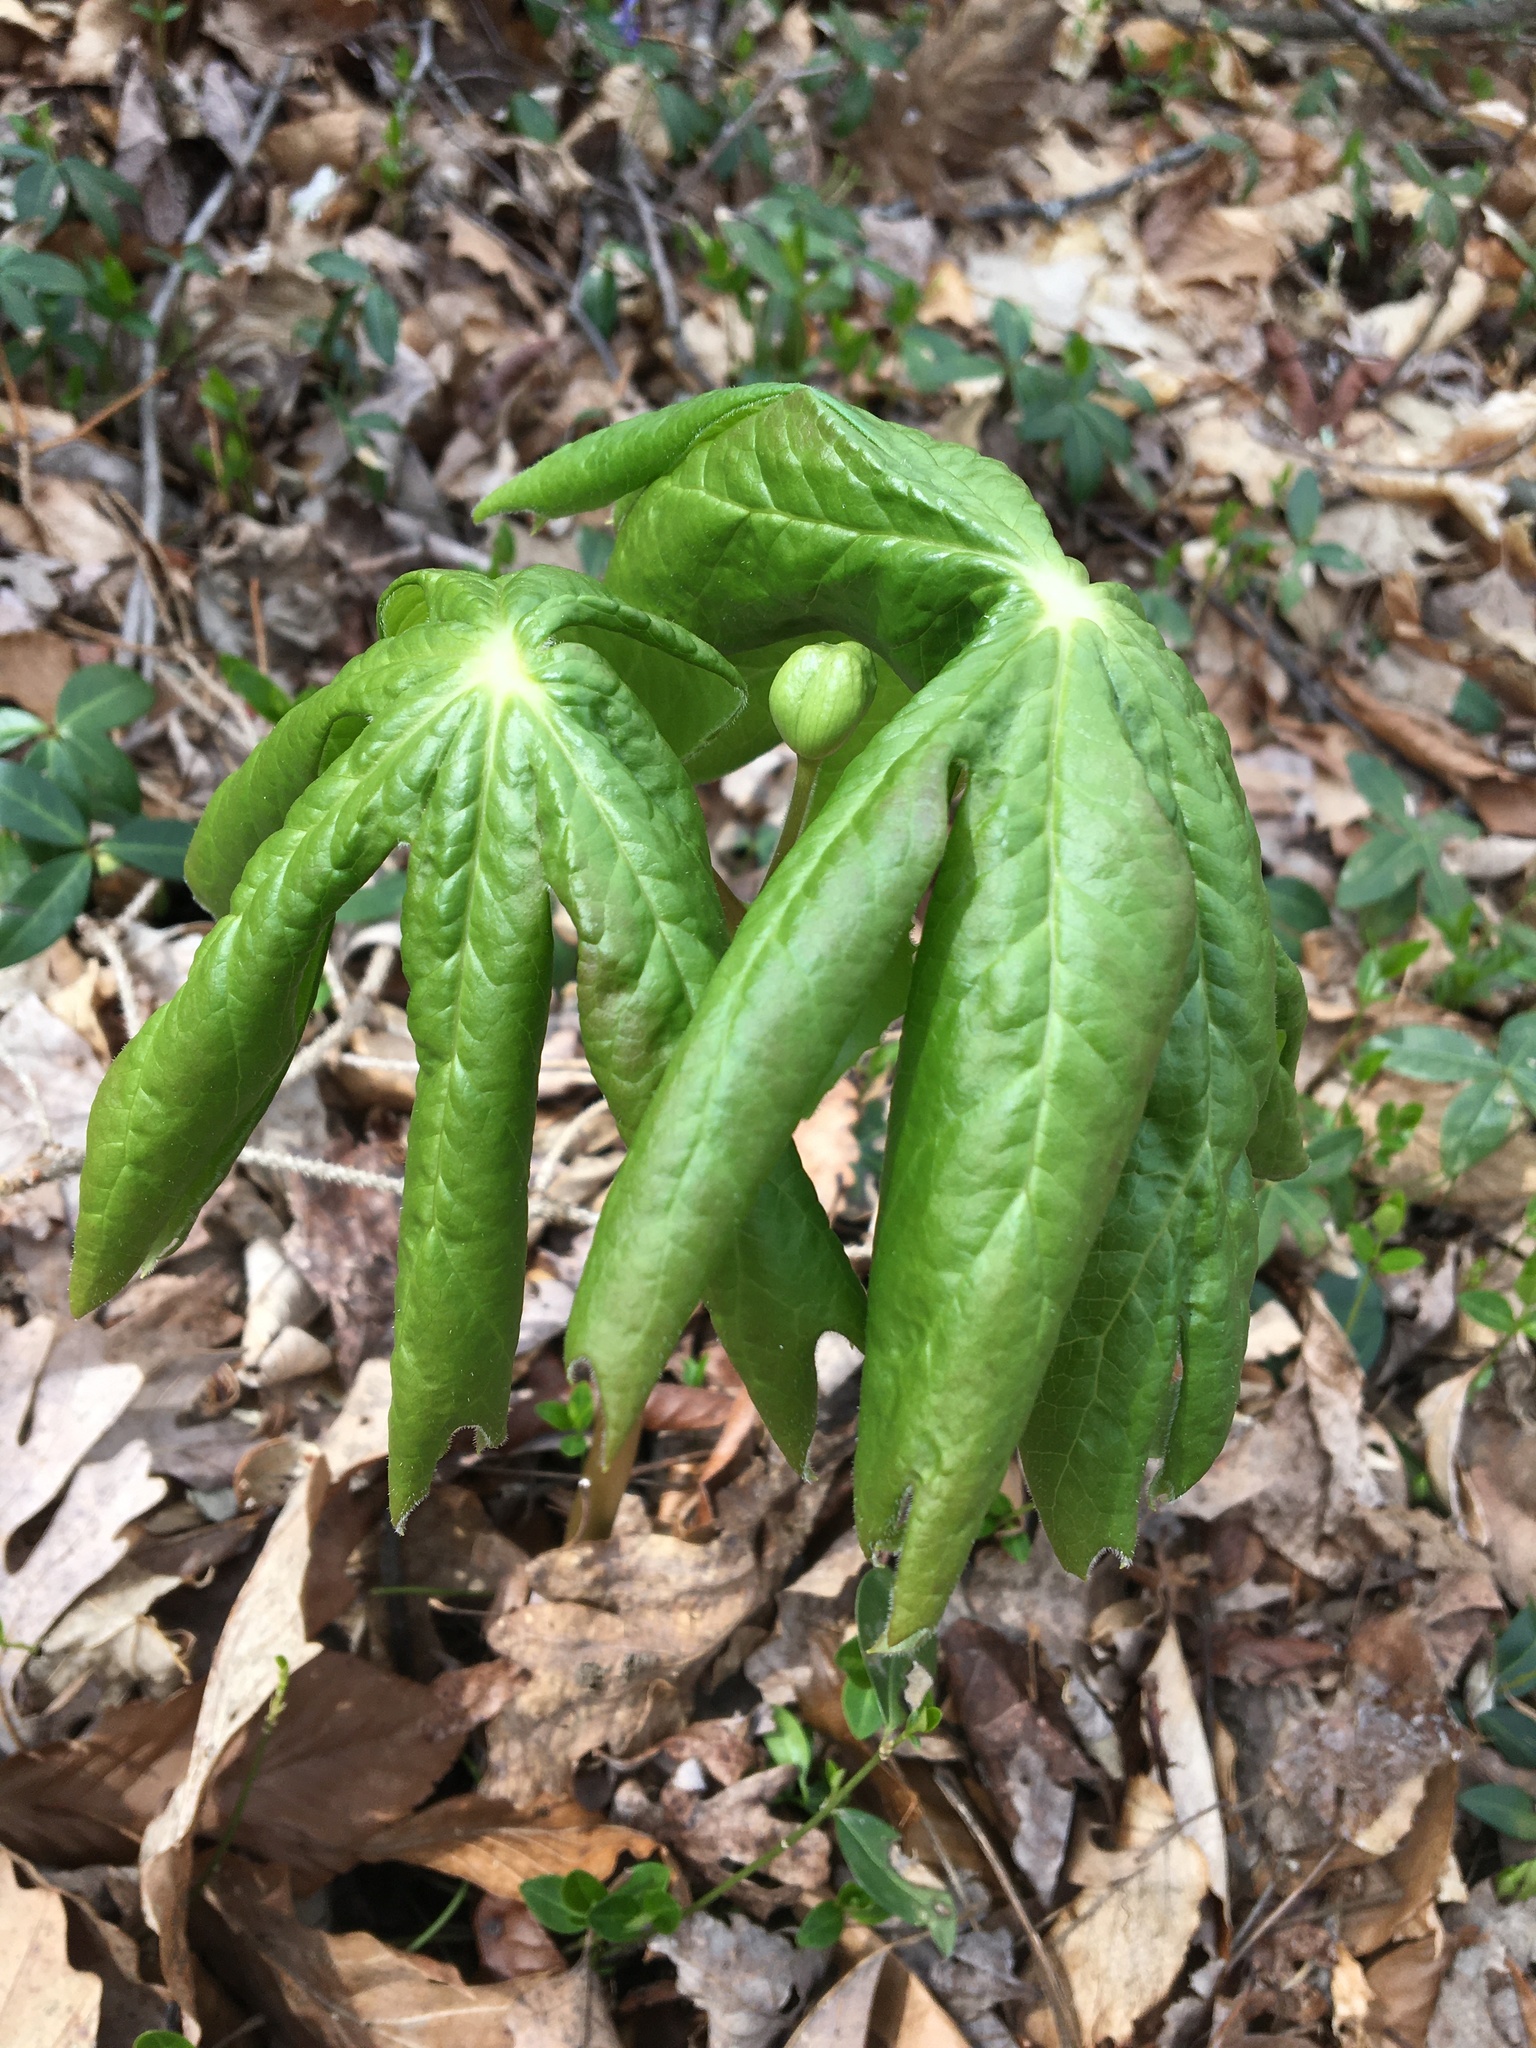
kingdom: Plantae
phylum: Tracheophyta
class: Magnoliopsida
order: Ranunculales
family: Berberidaceae
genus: Podophyllum
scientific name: Podophyllum peltatum
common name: Wild mandrake
